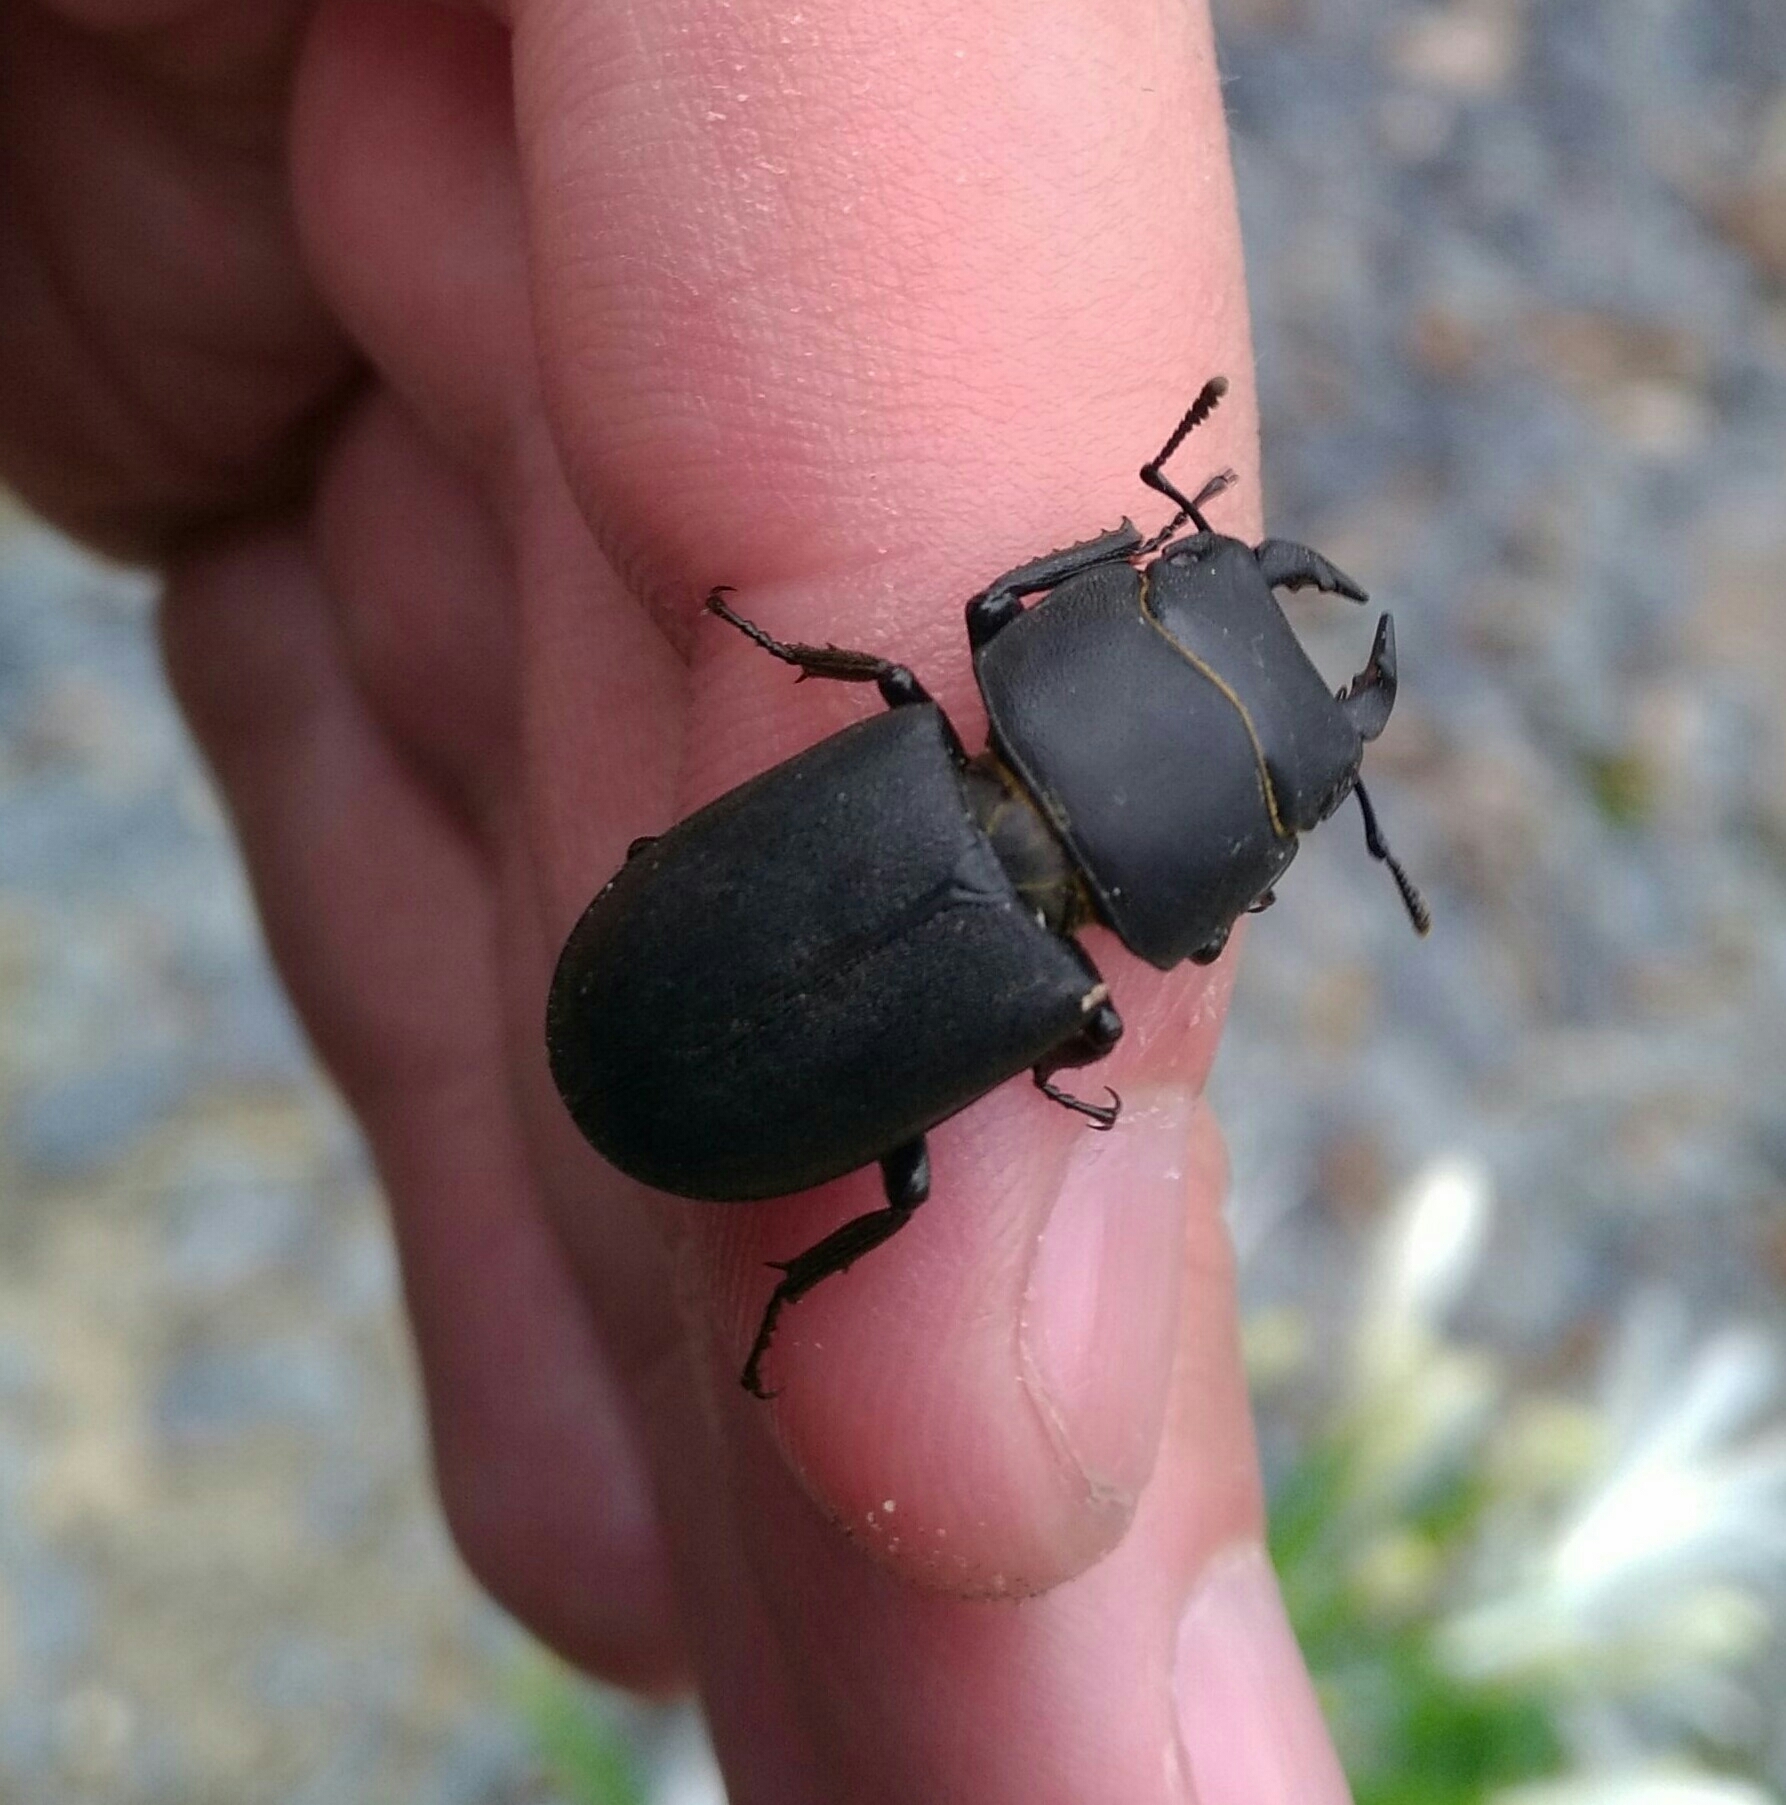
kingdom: Animalia
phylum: Arthropoda
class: Insecta
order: Coleoptera
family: Lucanidae
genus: Dorcus
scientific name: Dorcus parallelipipedus
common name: Lesser stag beetle
